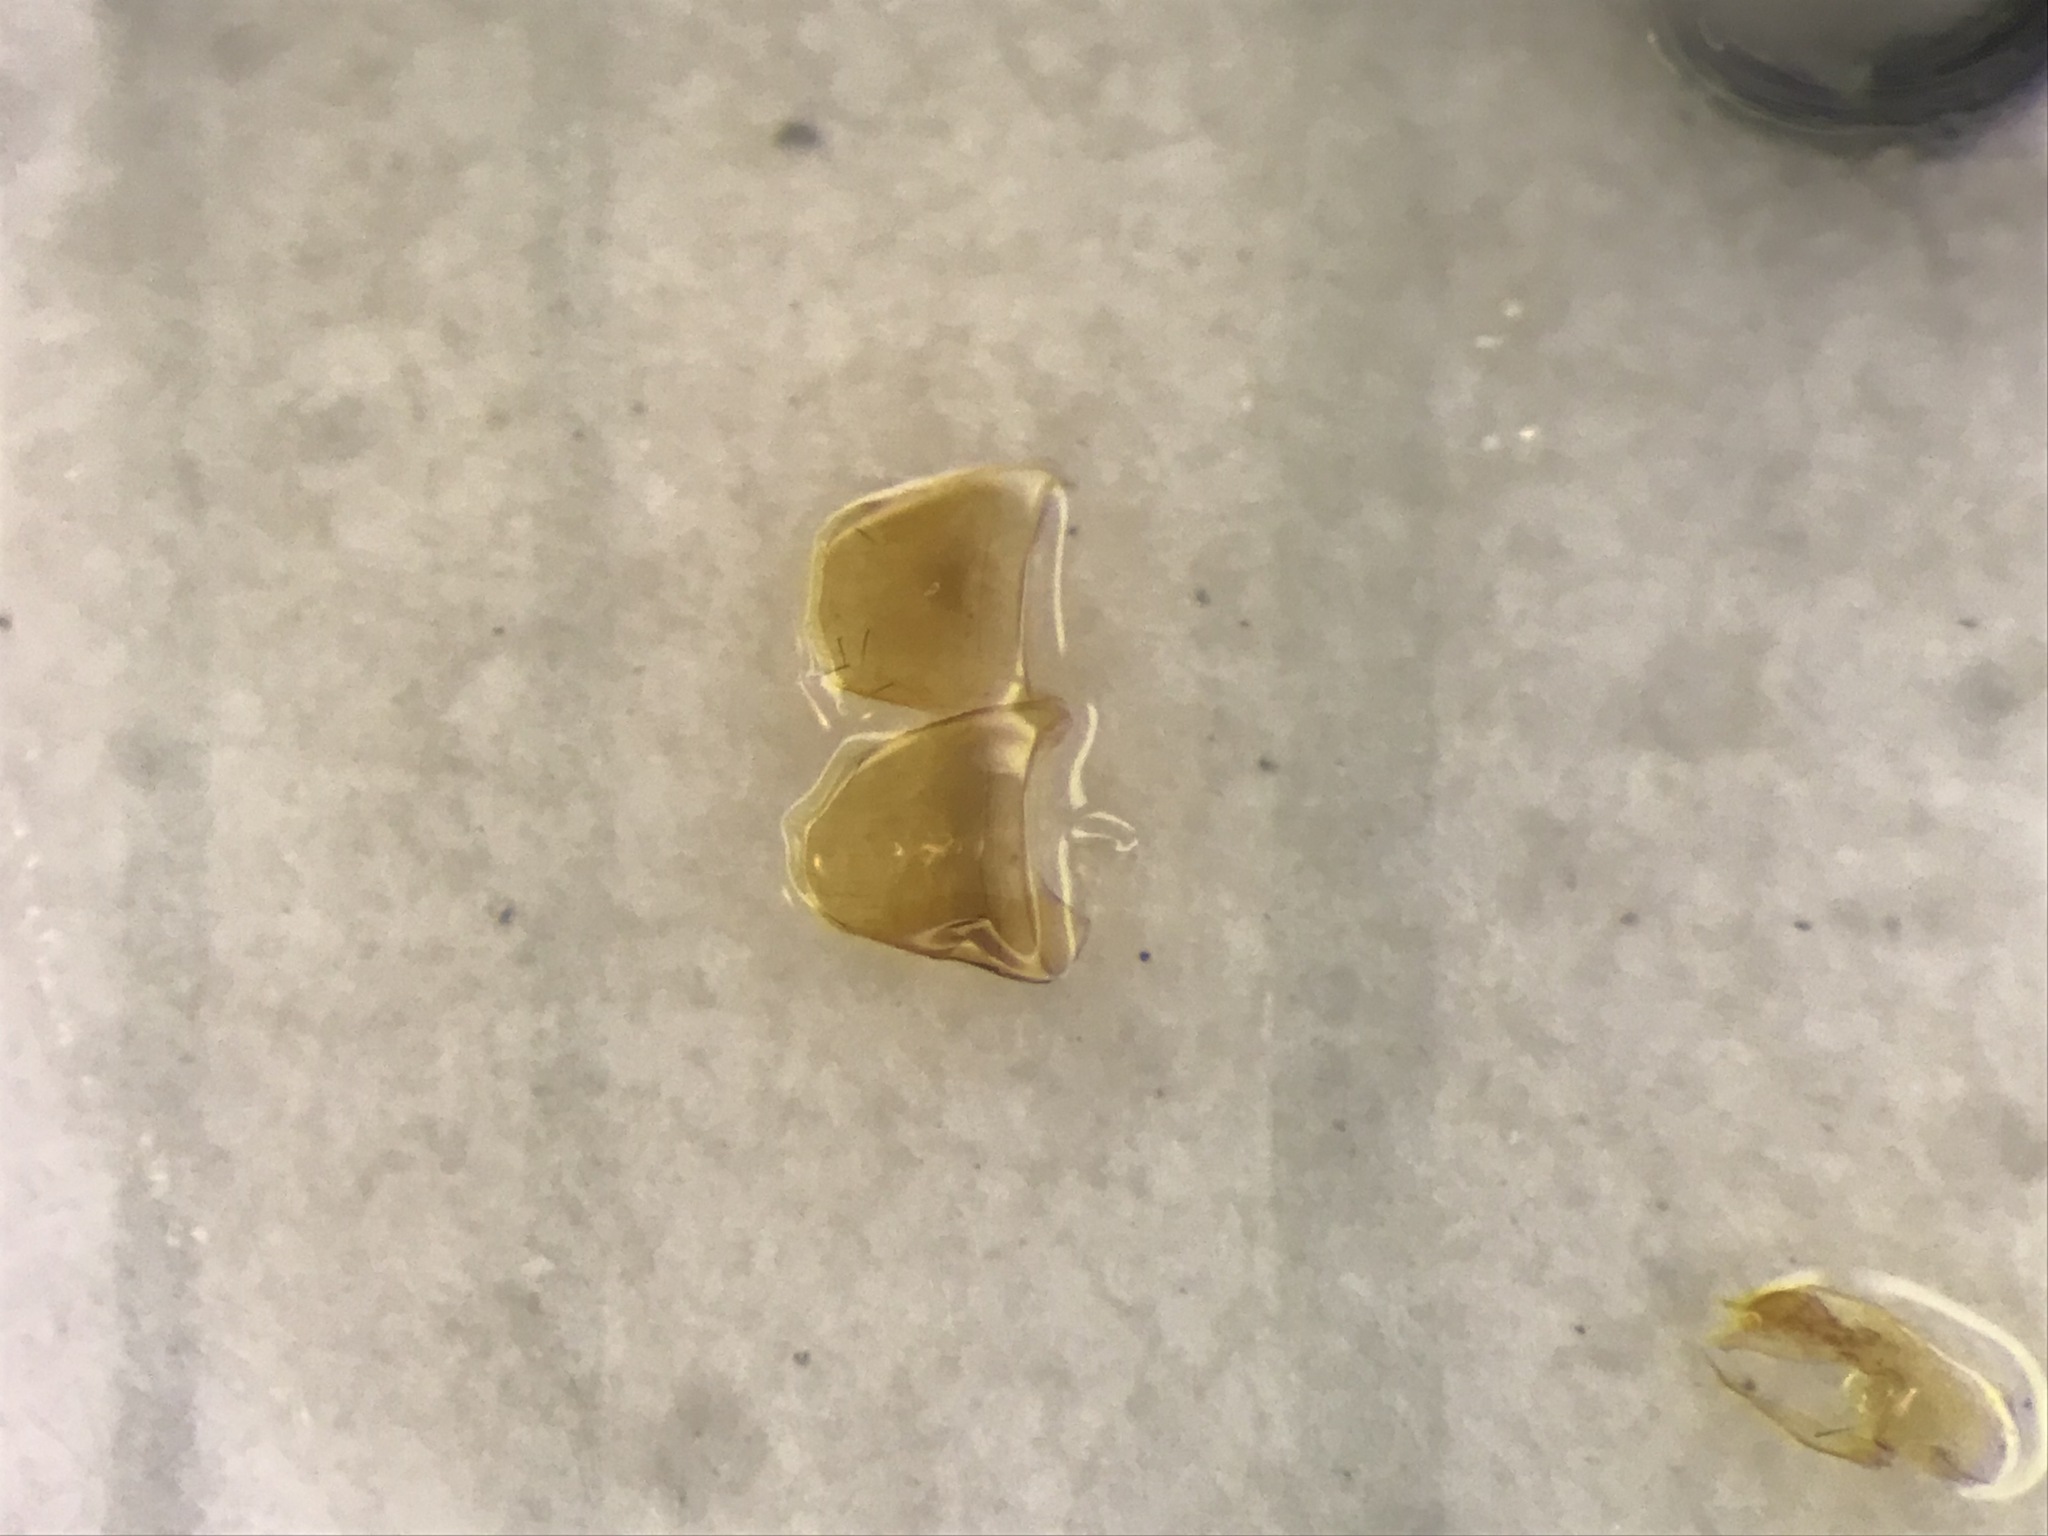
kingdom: Animalia
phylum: Arthropoda
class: Insecta
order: Coleoptera
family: Staphylinidae
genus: Leptusa
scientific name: Leptusa brevicollis
